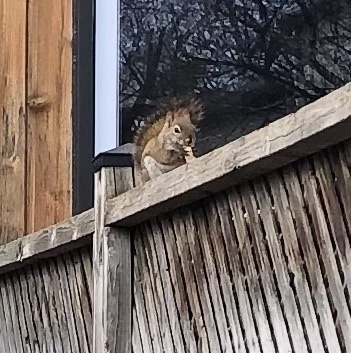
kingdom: Animalia
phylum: Chordata
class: Mammalia
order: Rodentia
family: Sciuridae
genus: Tamiasciurus
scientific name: Tamiasciurus hudsonicus
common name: Red squirrel
